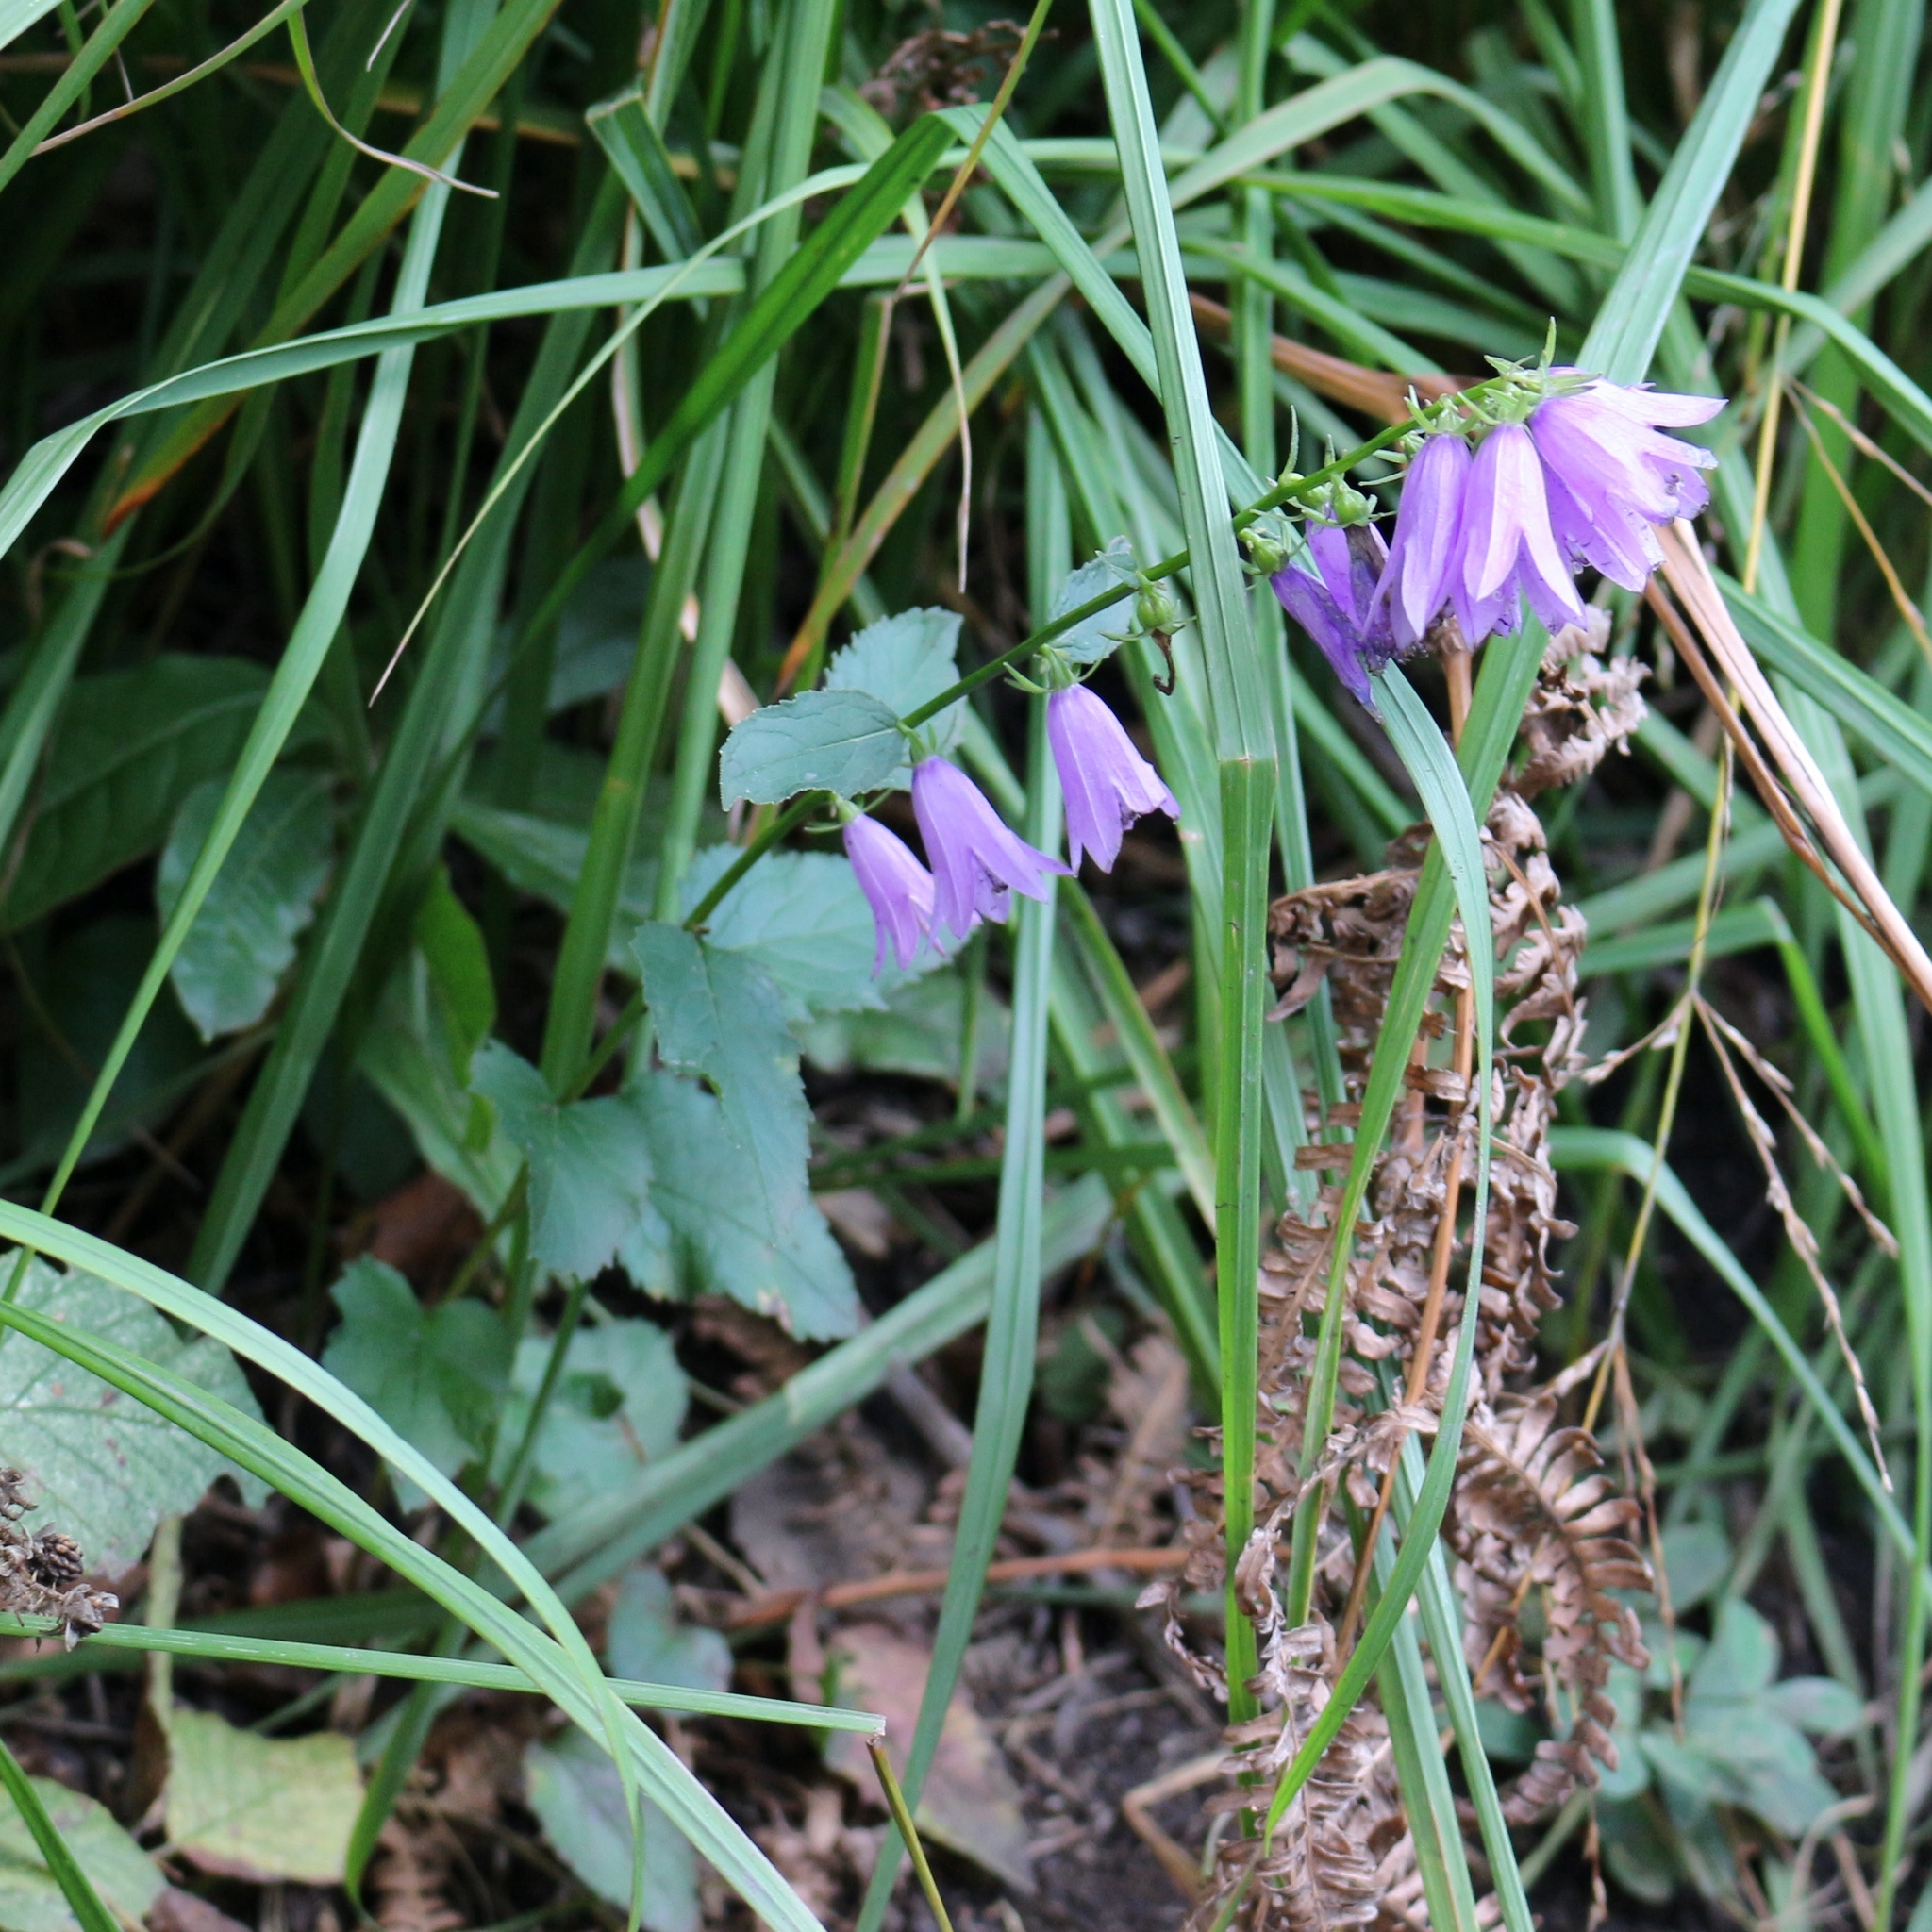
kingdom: Plantae
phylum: Tracheophyta
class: Magnoliopsida
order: Asterales
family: Campanulaceae
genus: Campanula
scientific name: Campanula rapunculoides
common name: Creeping bellflower
